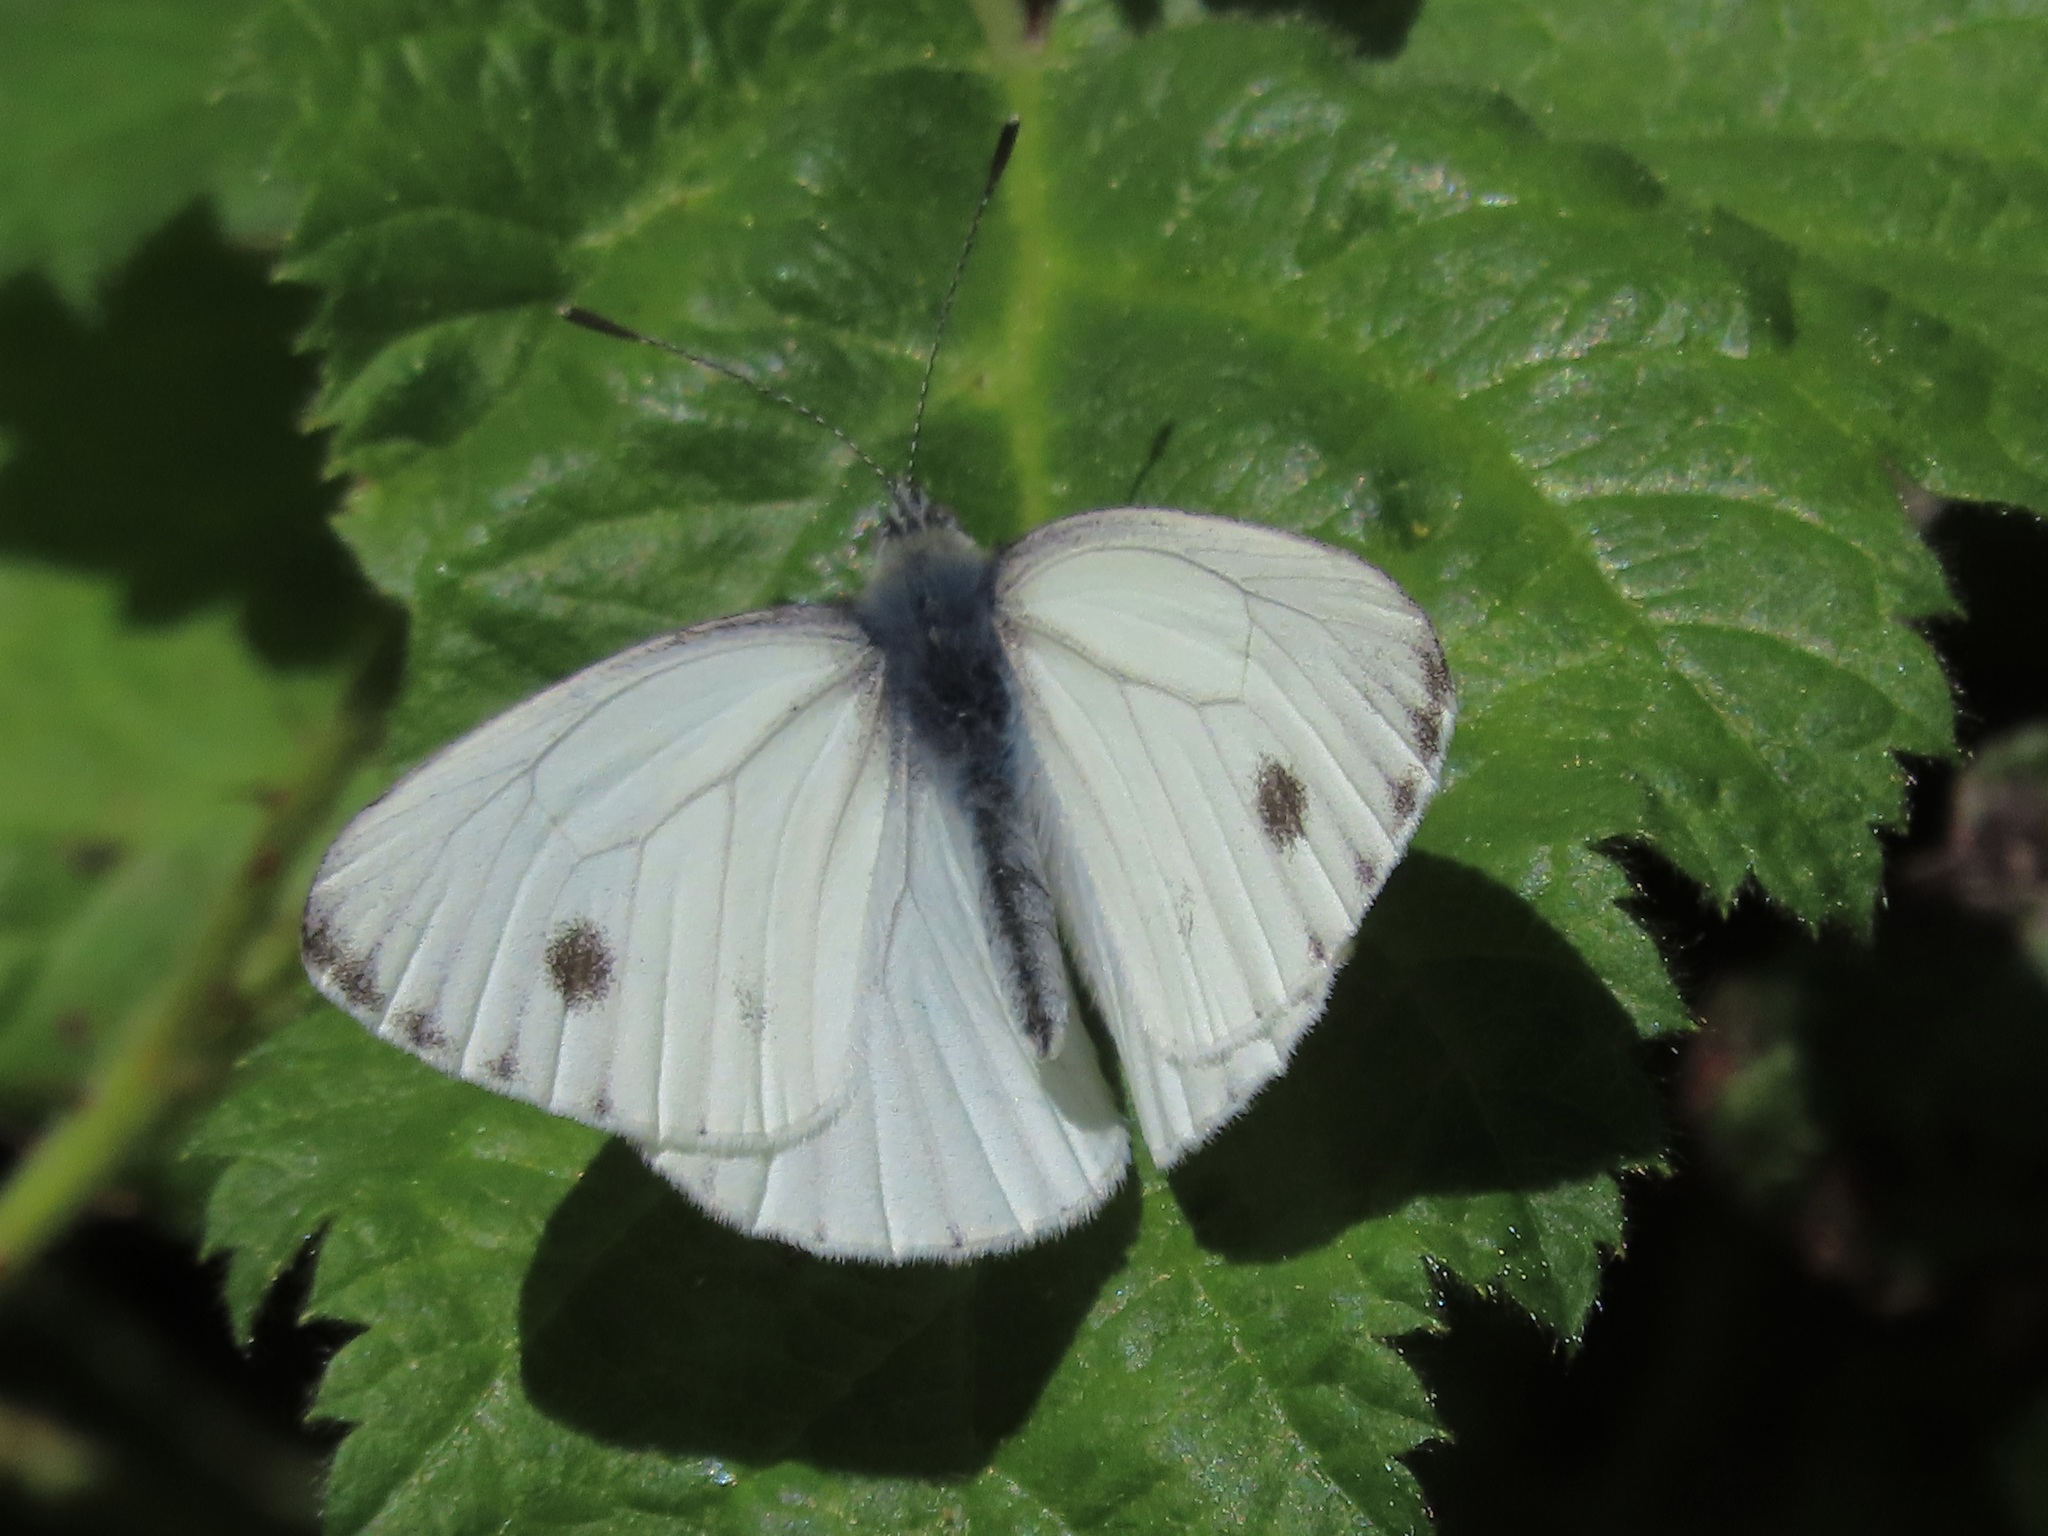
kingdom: Animalia
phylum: Arthropoda
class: Insecta
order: Lepidoptera
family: Pieridae
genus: Pieris
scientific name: Pieris marginalis
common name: Margined white
